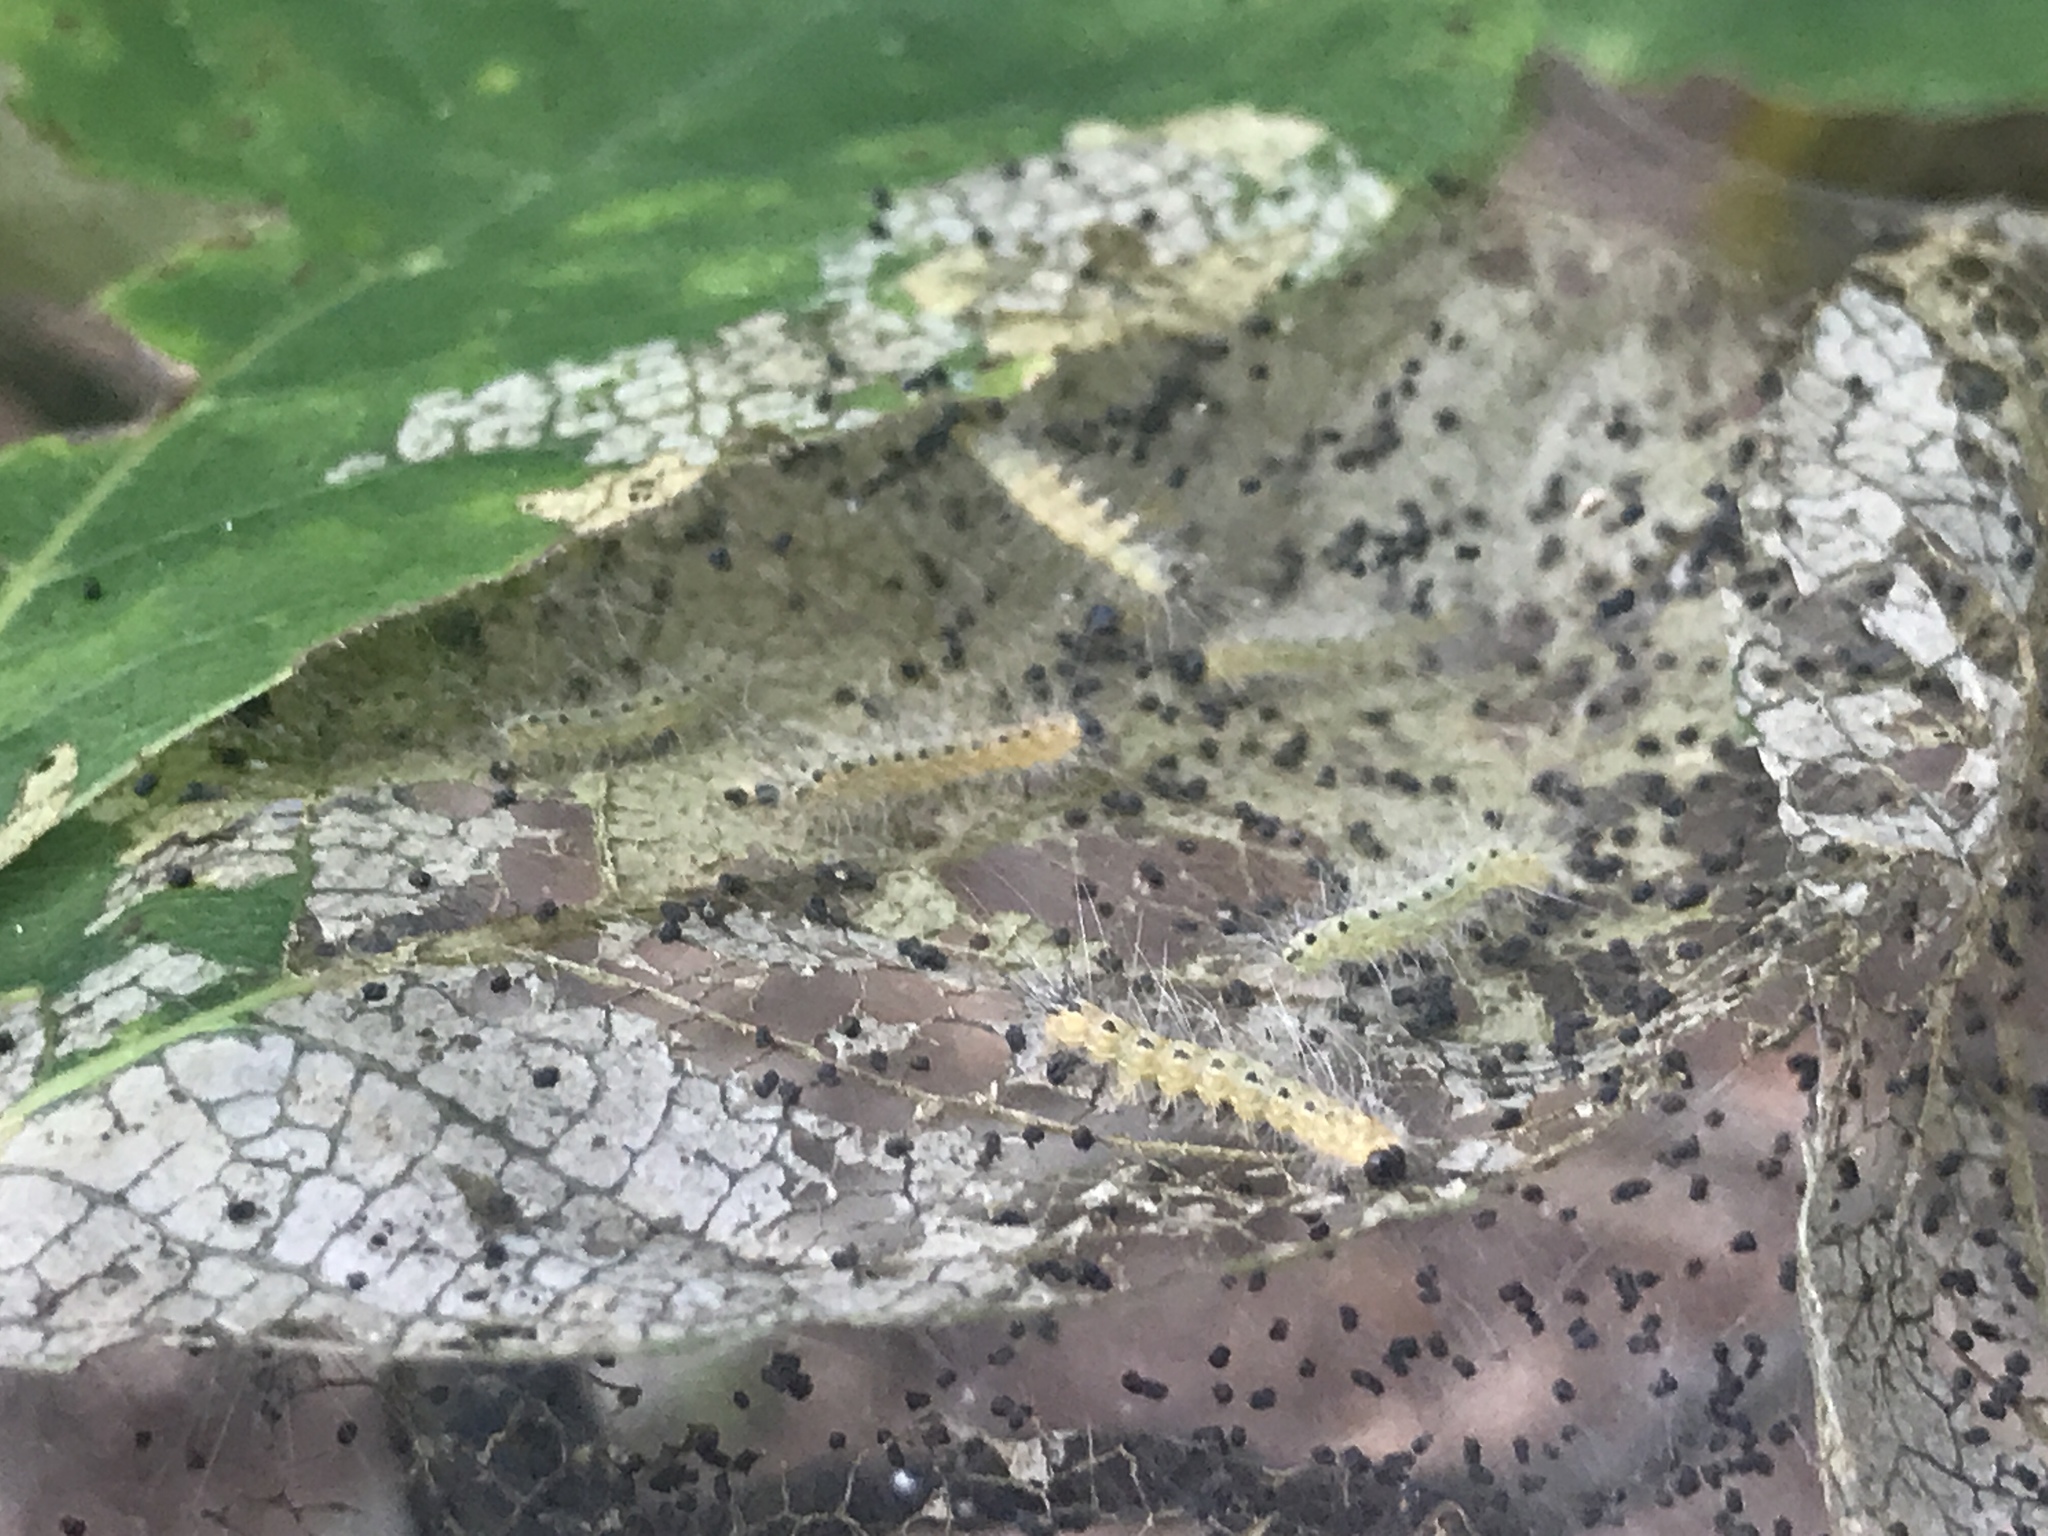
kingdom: Animalia
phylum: Arthropoda
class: Insecta
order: Lepidoptera
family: Erebidae
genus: Hyphantria
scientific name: Hyphantria cunea
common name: American white moth
